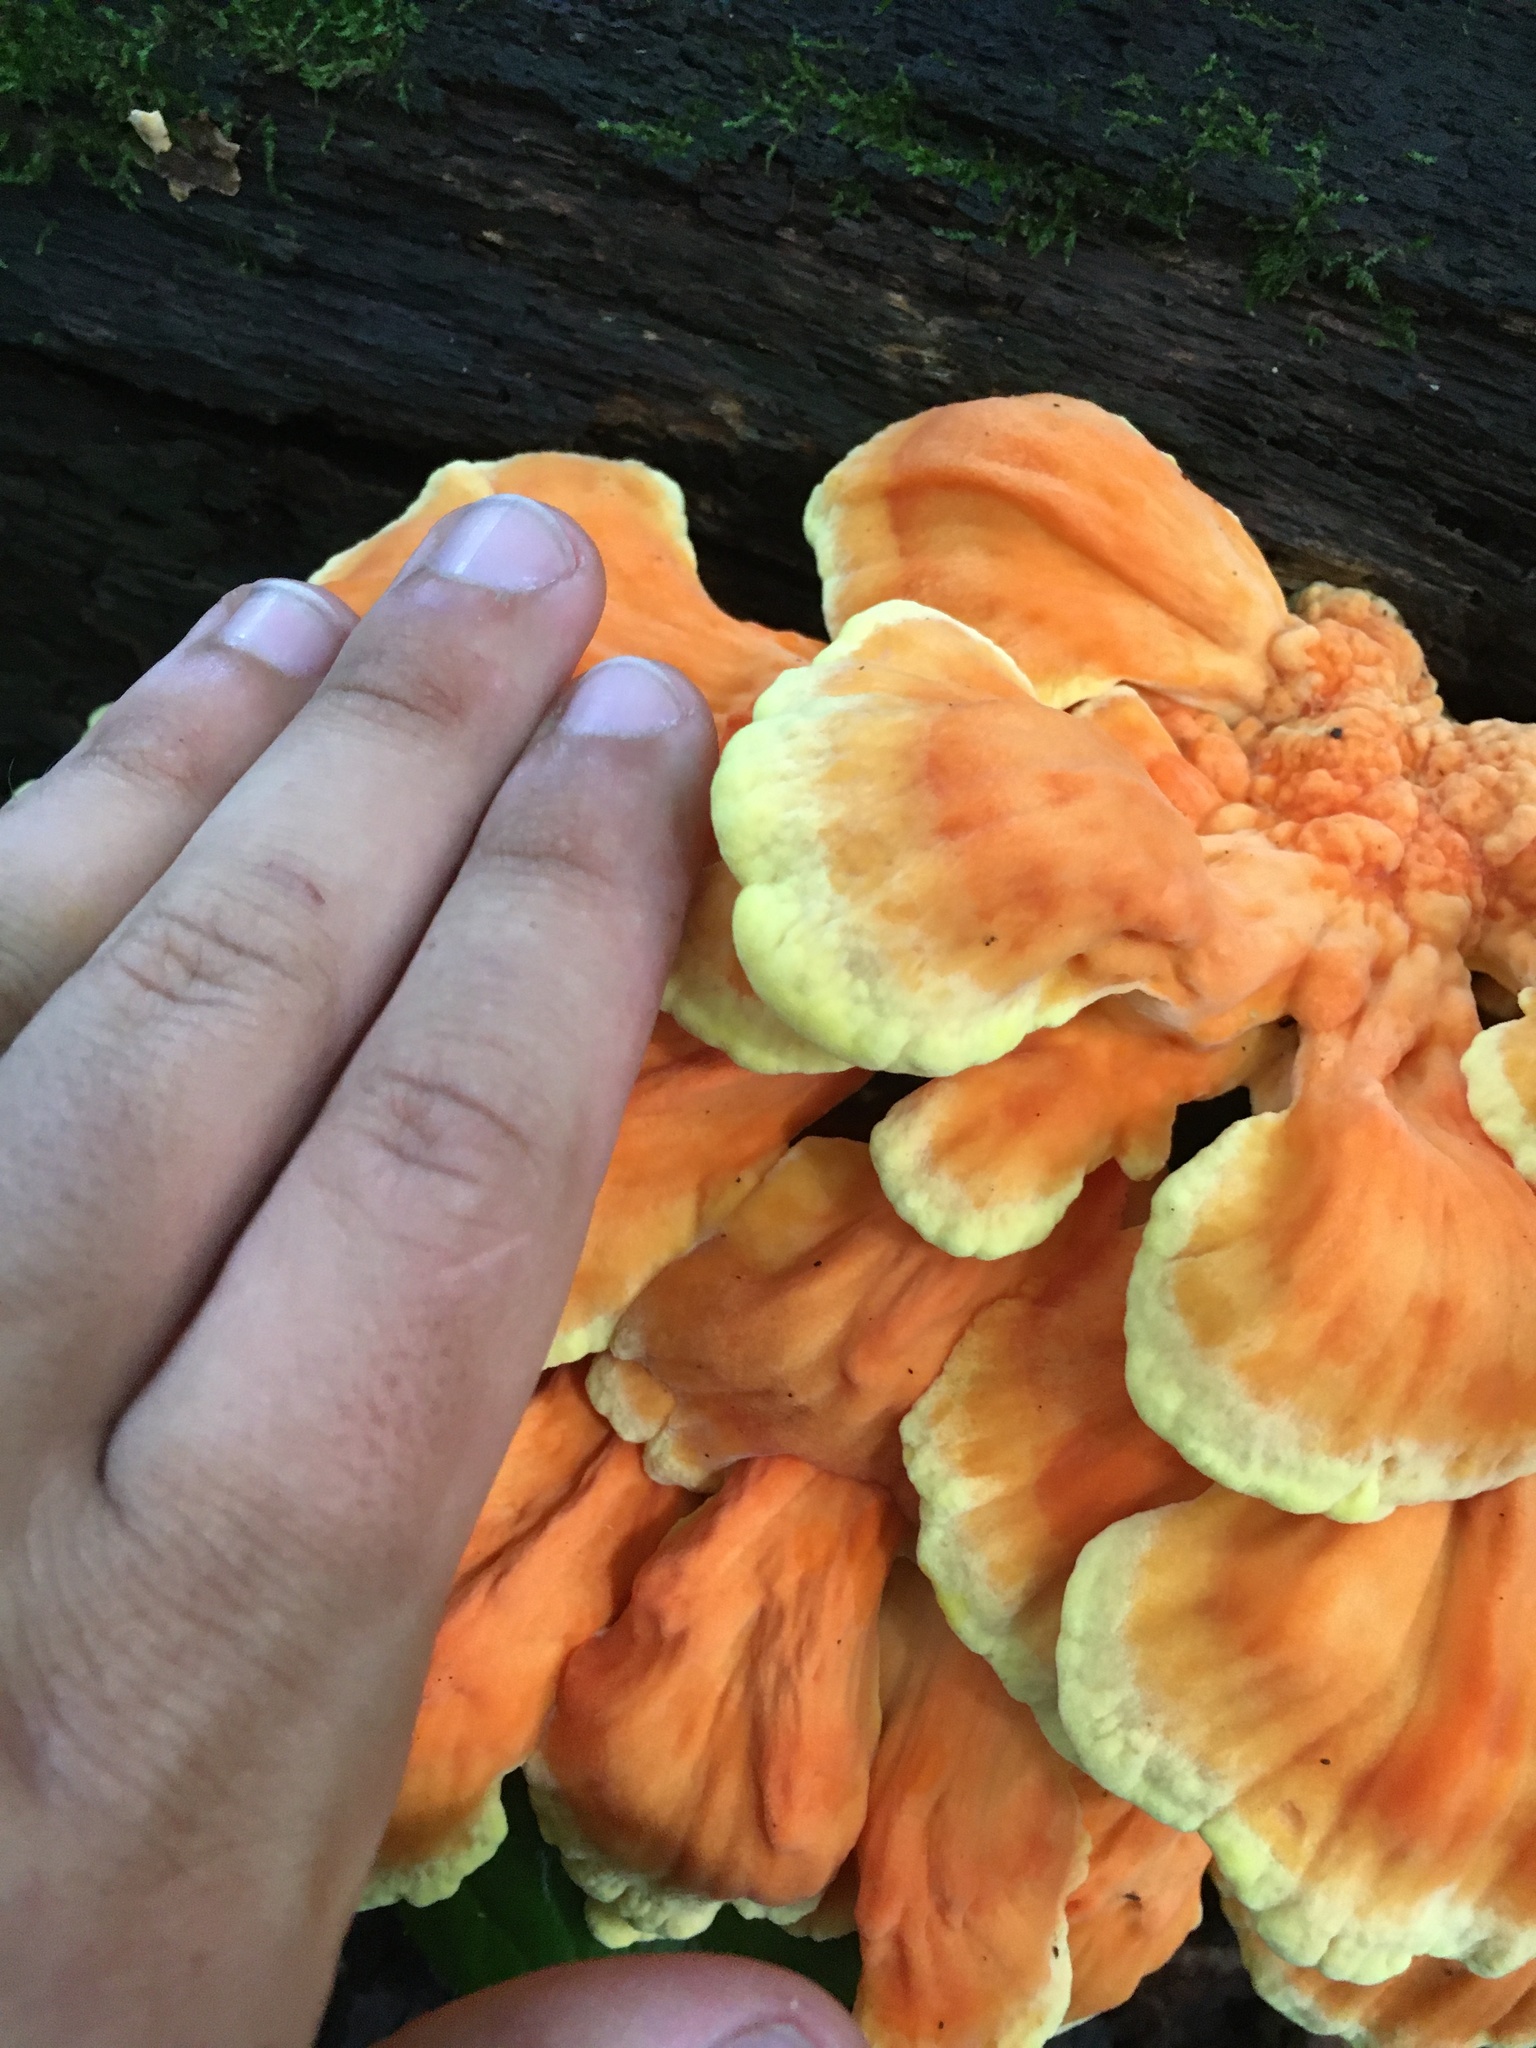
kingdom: Fungi
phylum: Basidiomycota
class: Agaricomycetes
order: Polyporales
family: Laetiporaceae
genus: Laetiporus
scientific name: Laetiporus sulphureus
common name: Chicken of the woods
